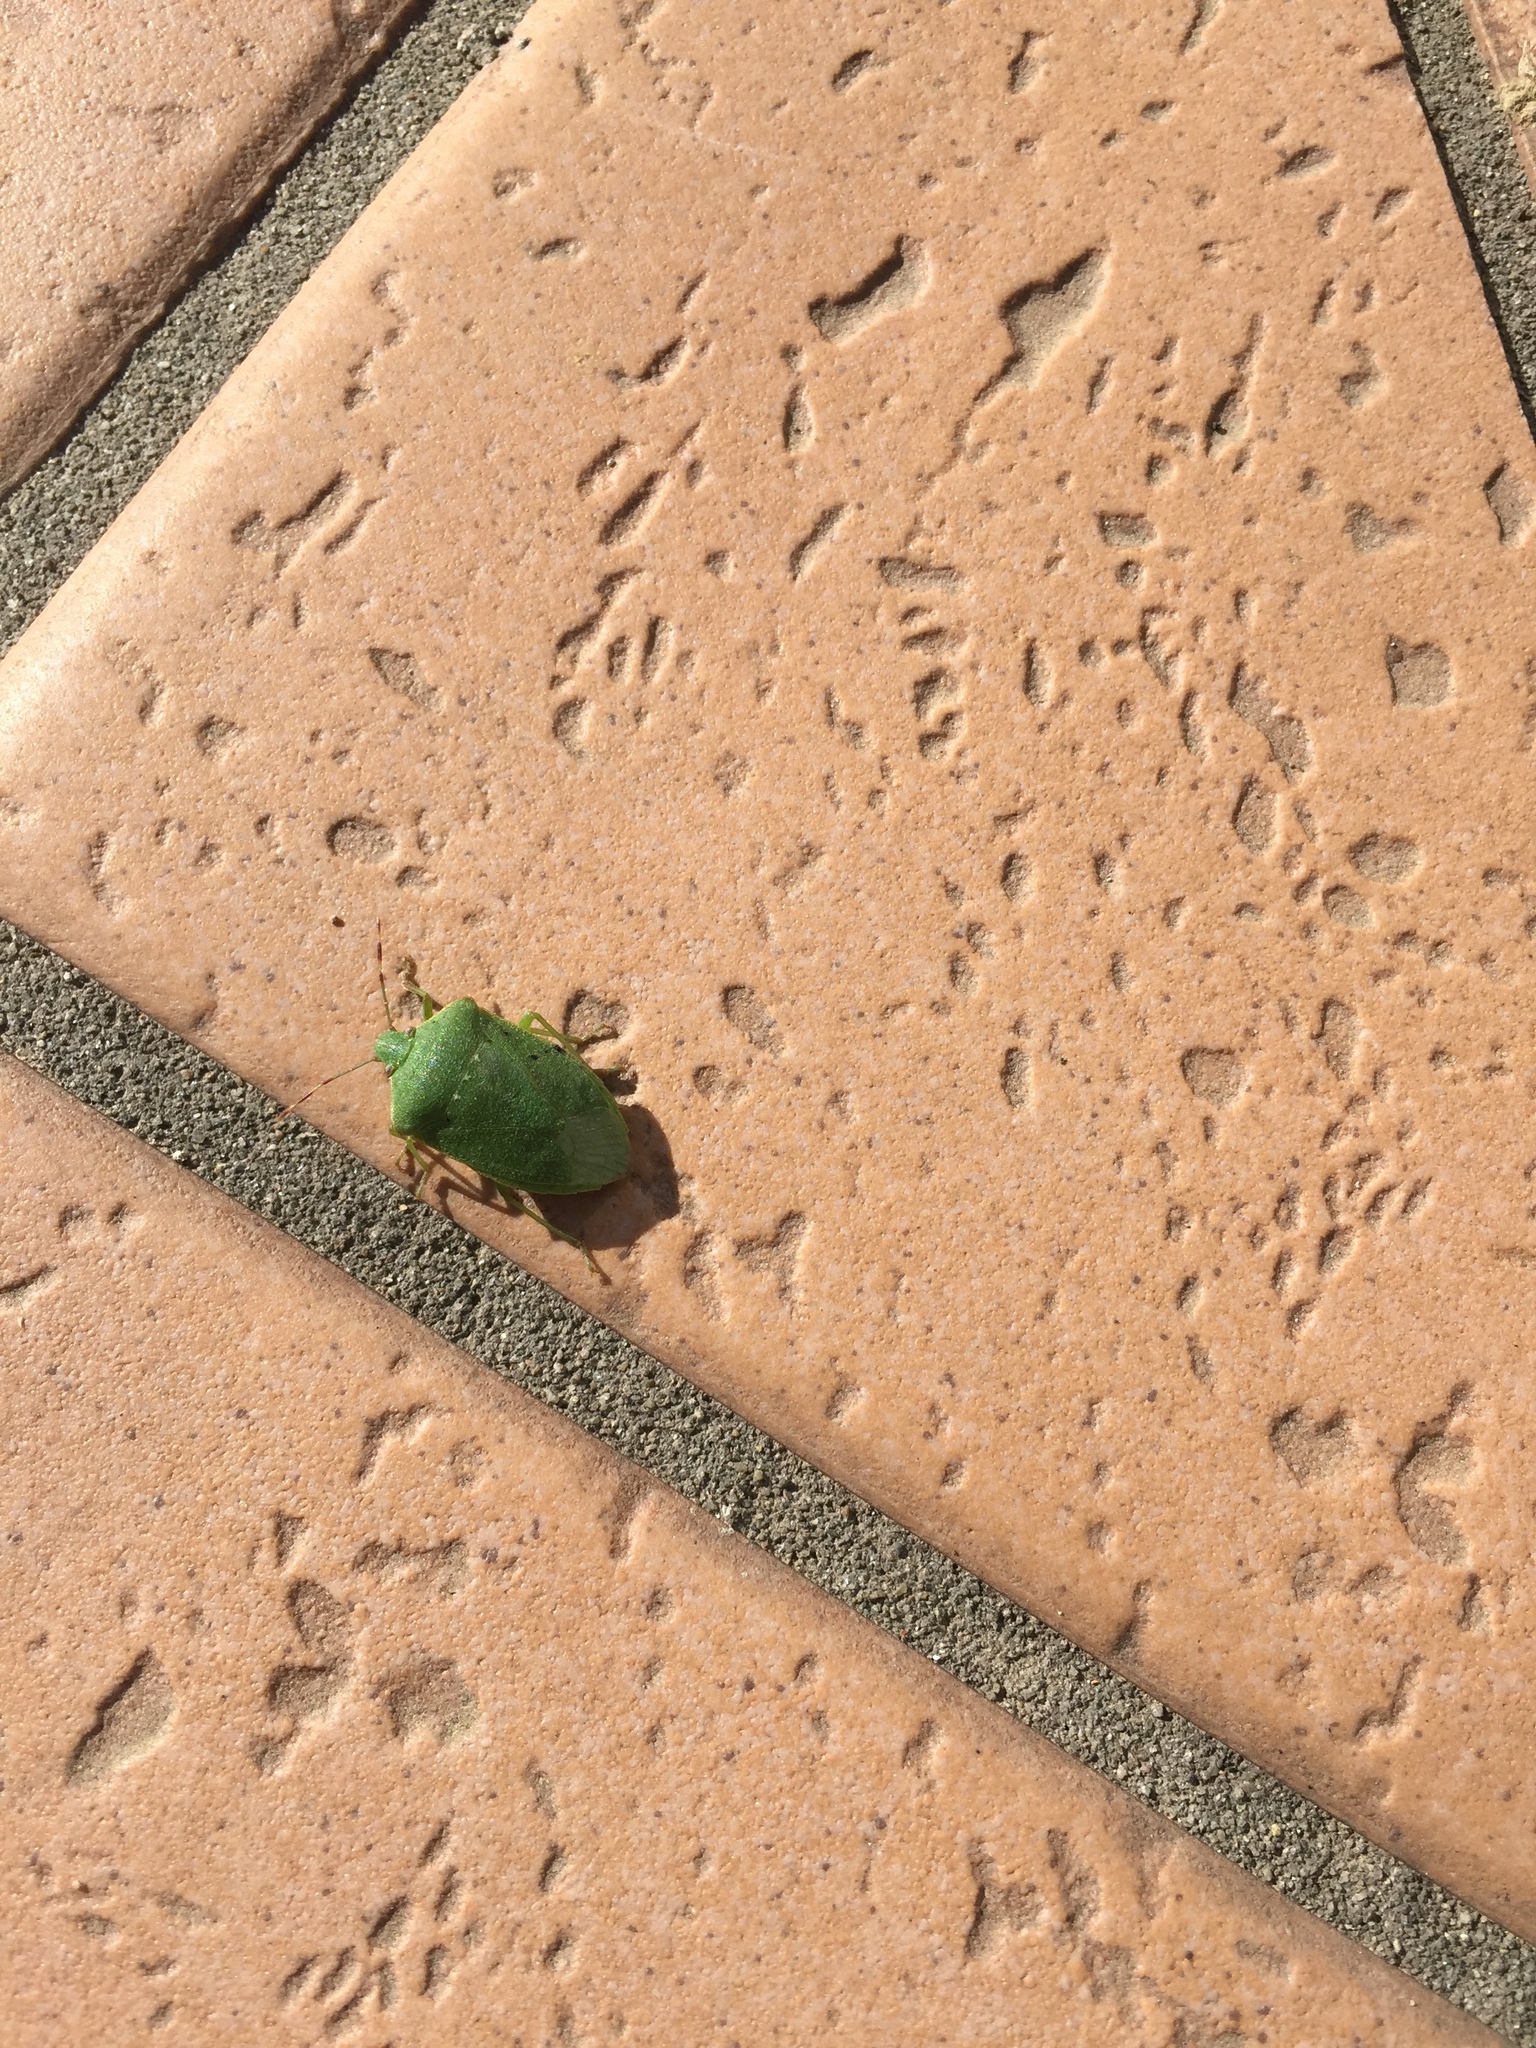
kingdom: Animalia
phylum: Arthropoda
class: Insecta
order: Hemiptera
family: Pentatomidae
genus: Nezara
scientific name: Nezara viridula
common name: Southern green stink bug
